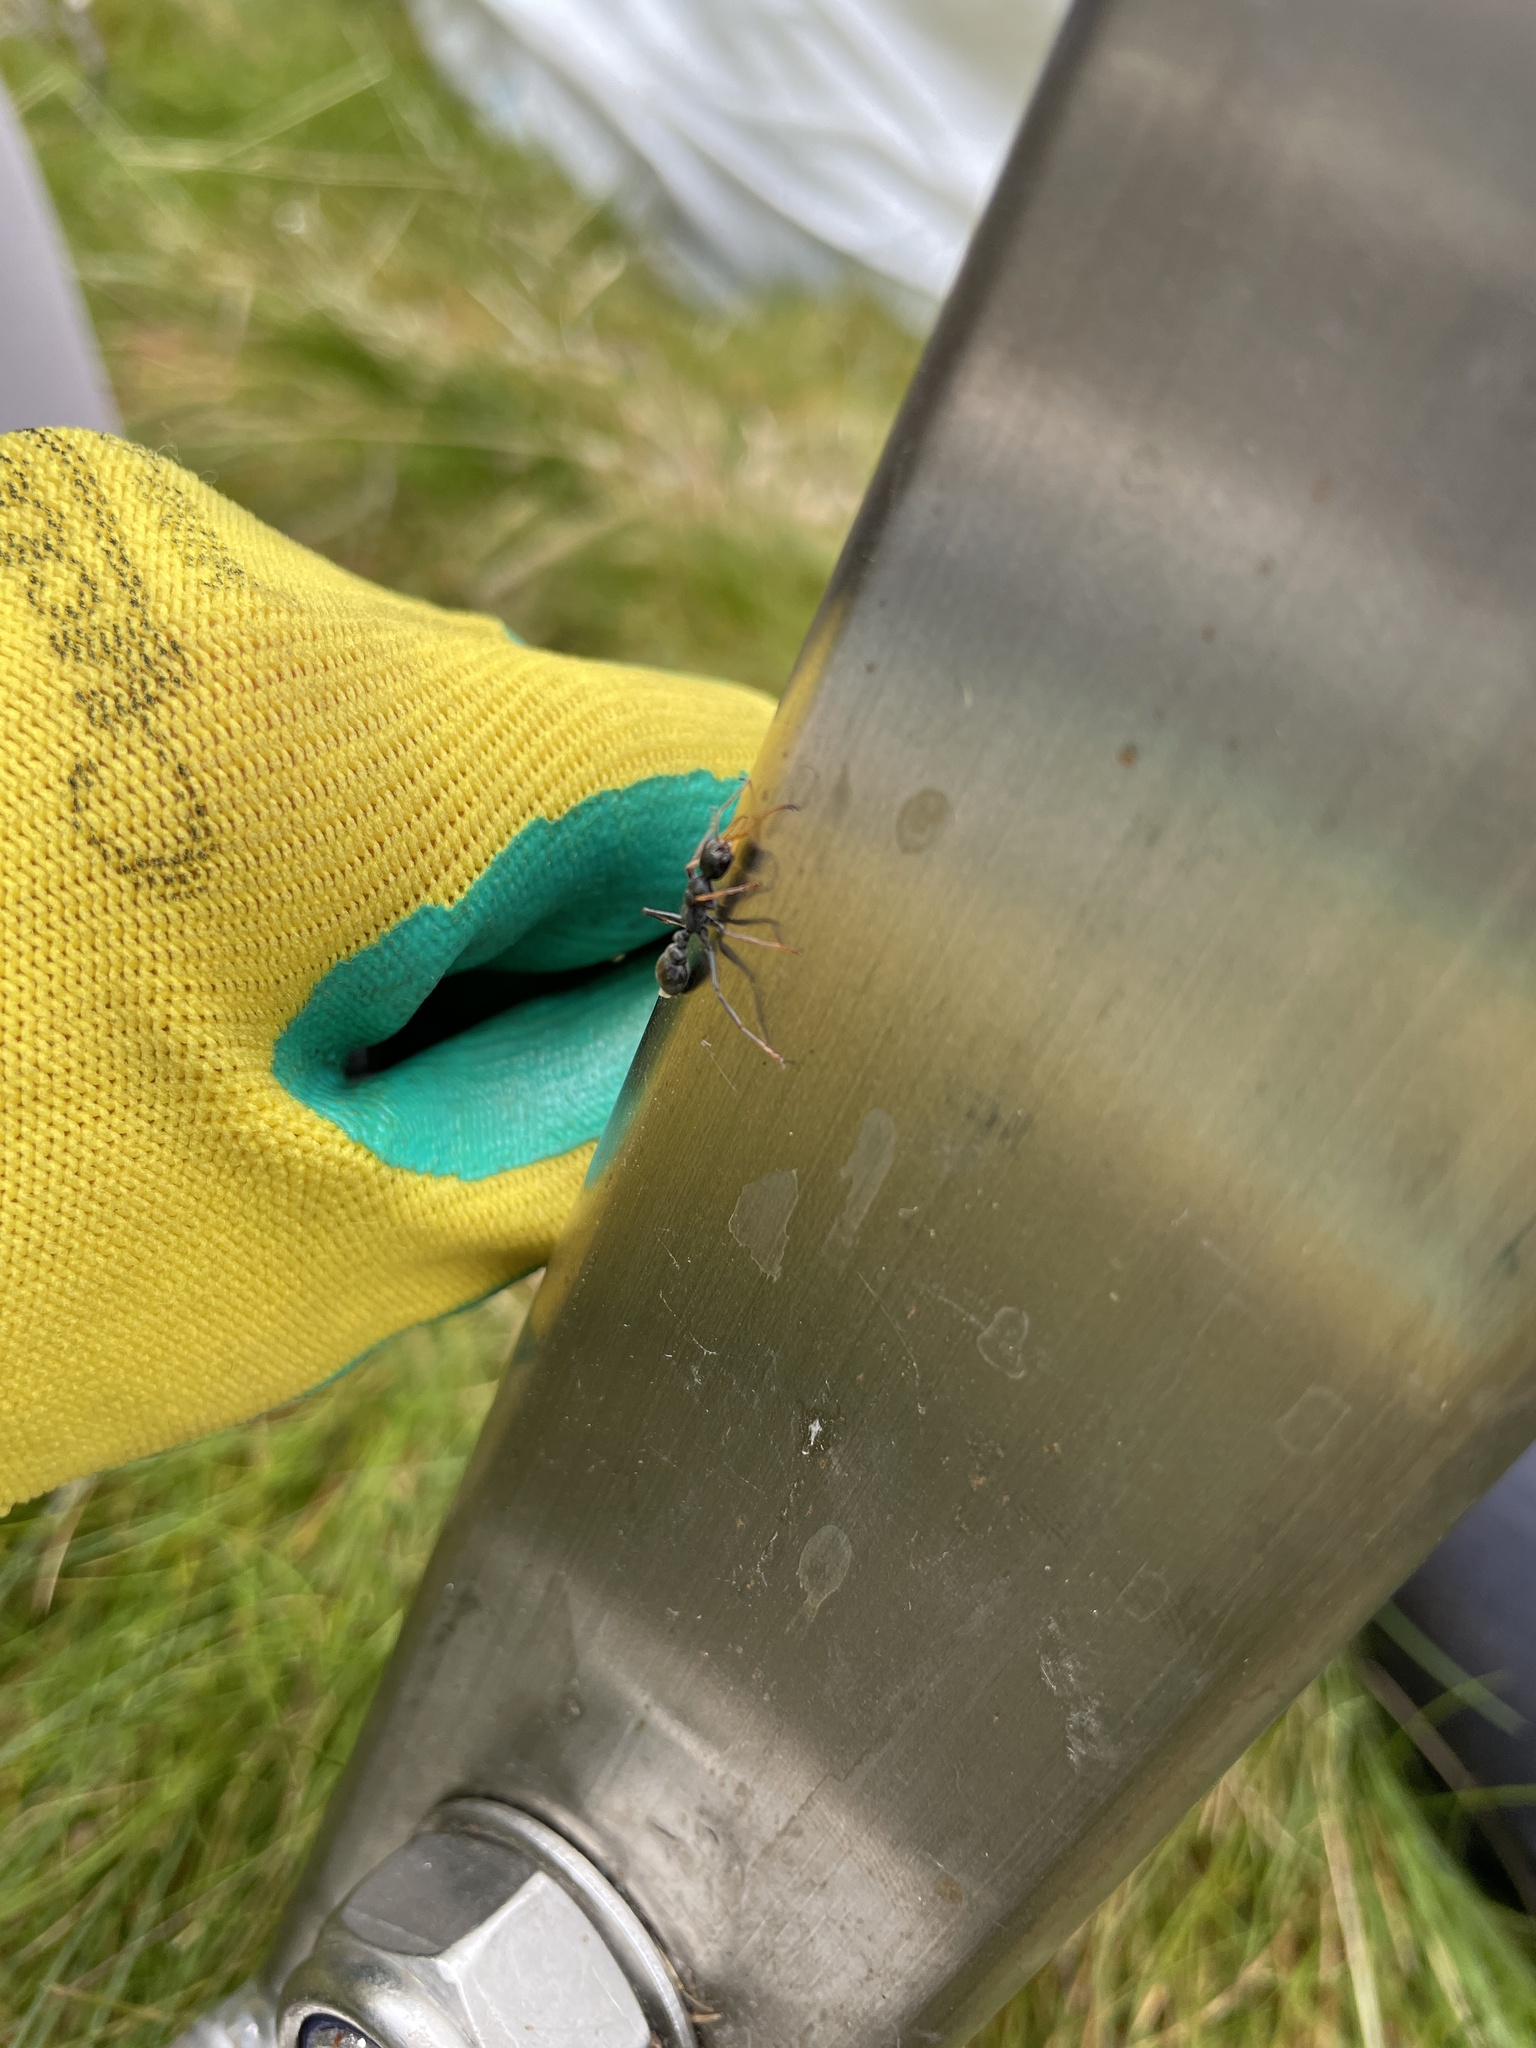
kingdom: Animalia
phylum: Arthropoda
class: Insecta
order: Hymenoptera
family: Formicidae
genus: Myrmecia
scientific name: Myrmecia pilosula
